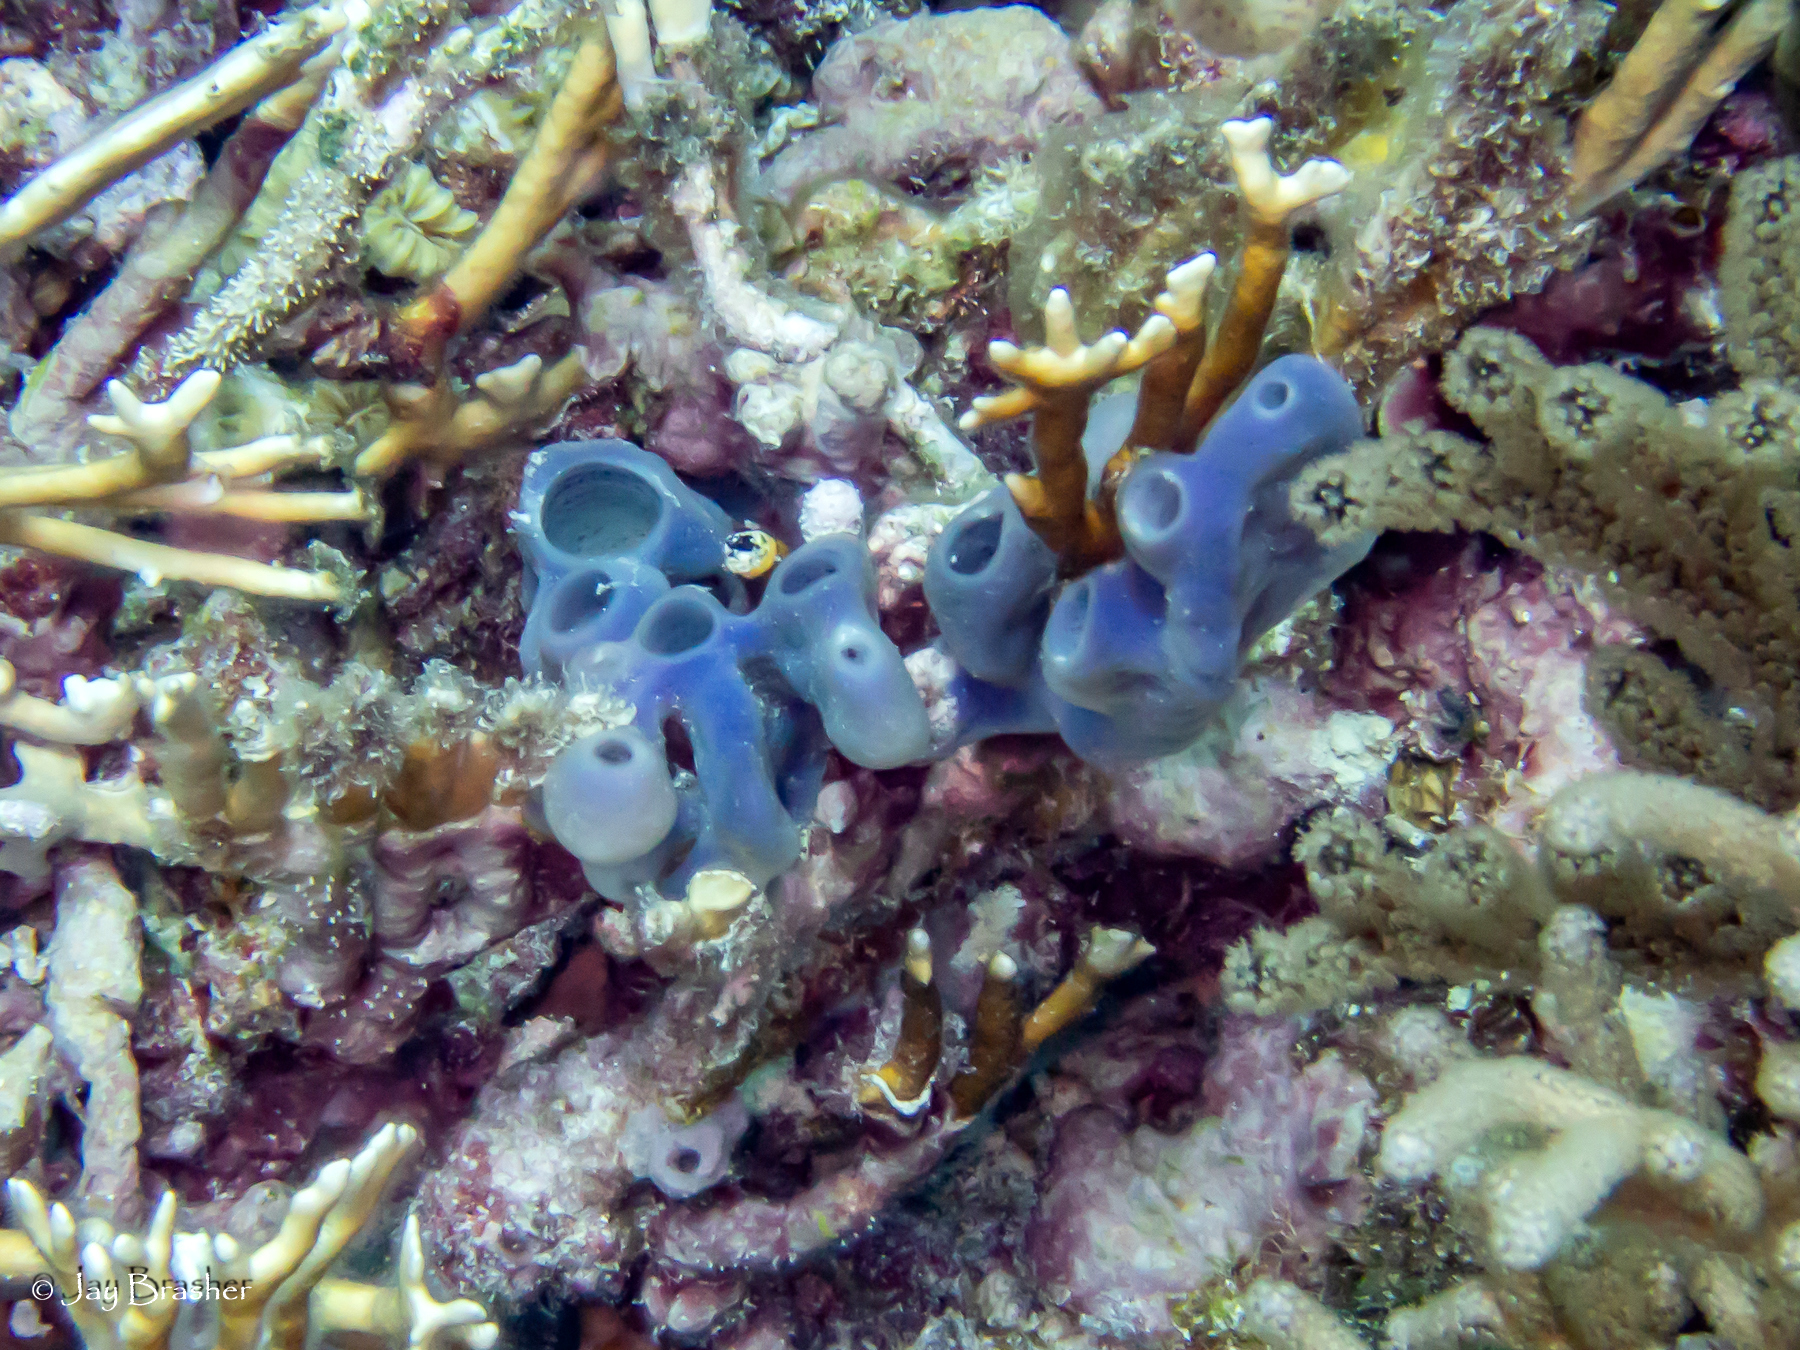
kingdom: Animalia
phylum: Porifera
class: Demospongiae
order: Haplosclerida
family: Callyspongiidae
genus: Callyspongia
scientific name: Callyspongia fallax
